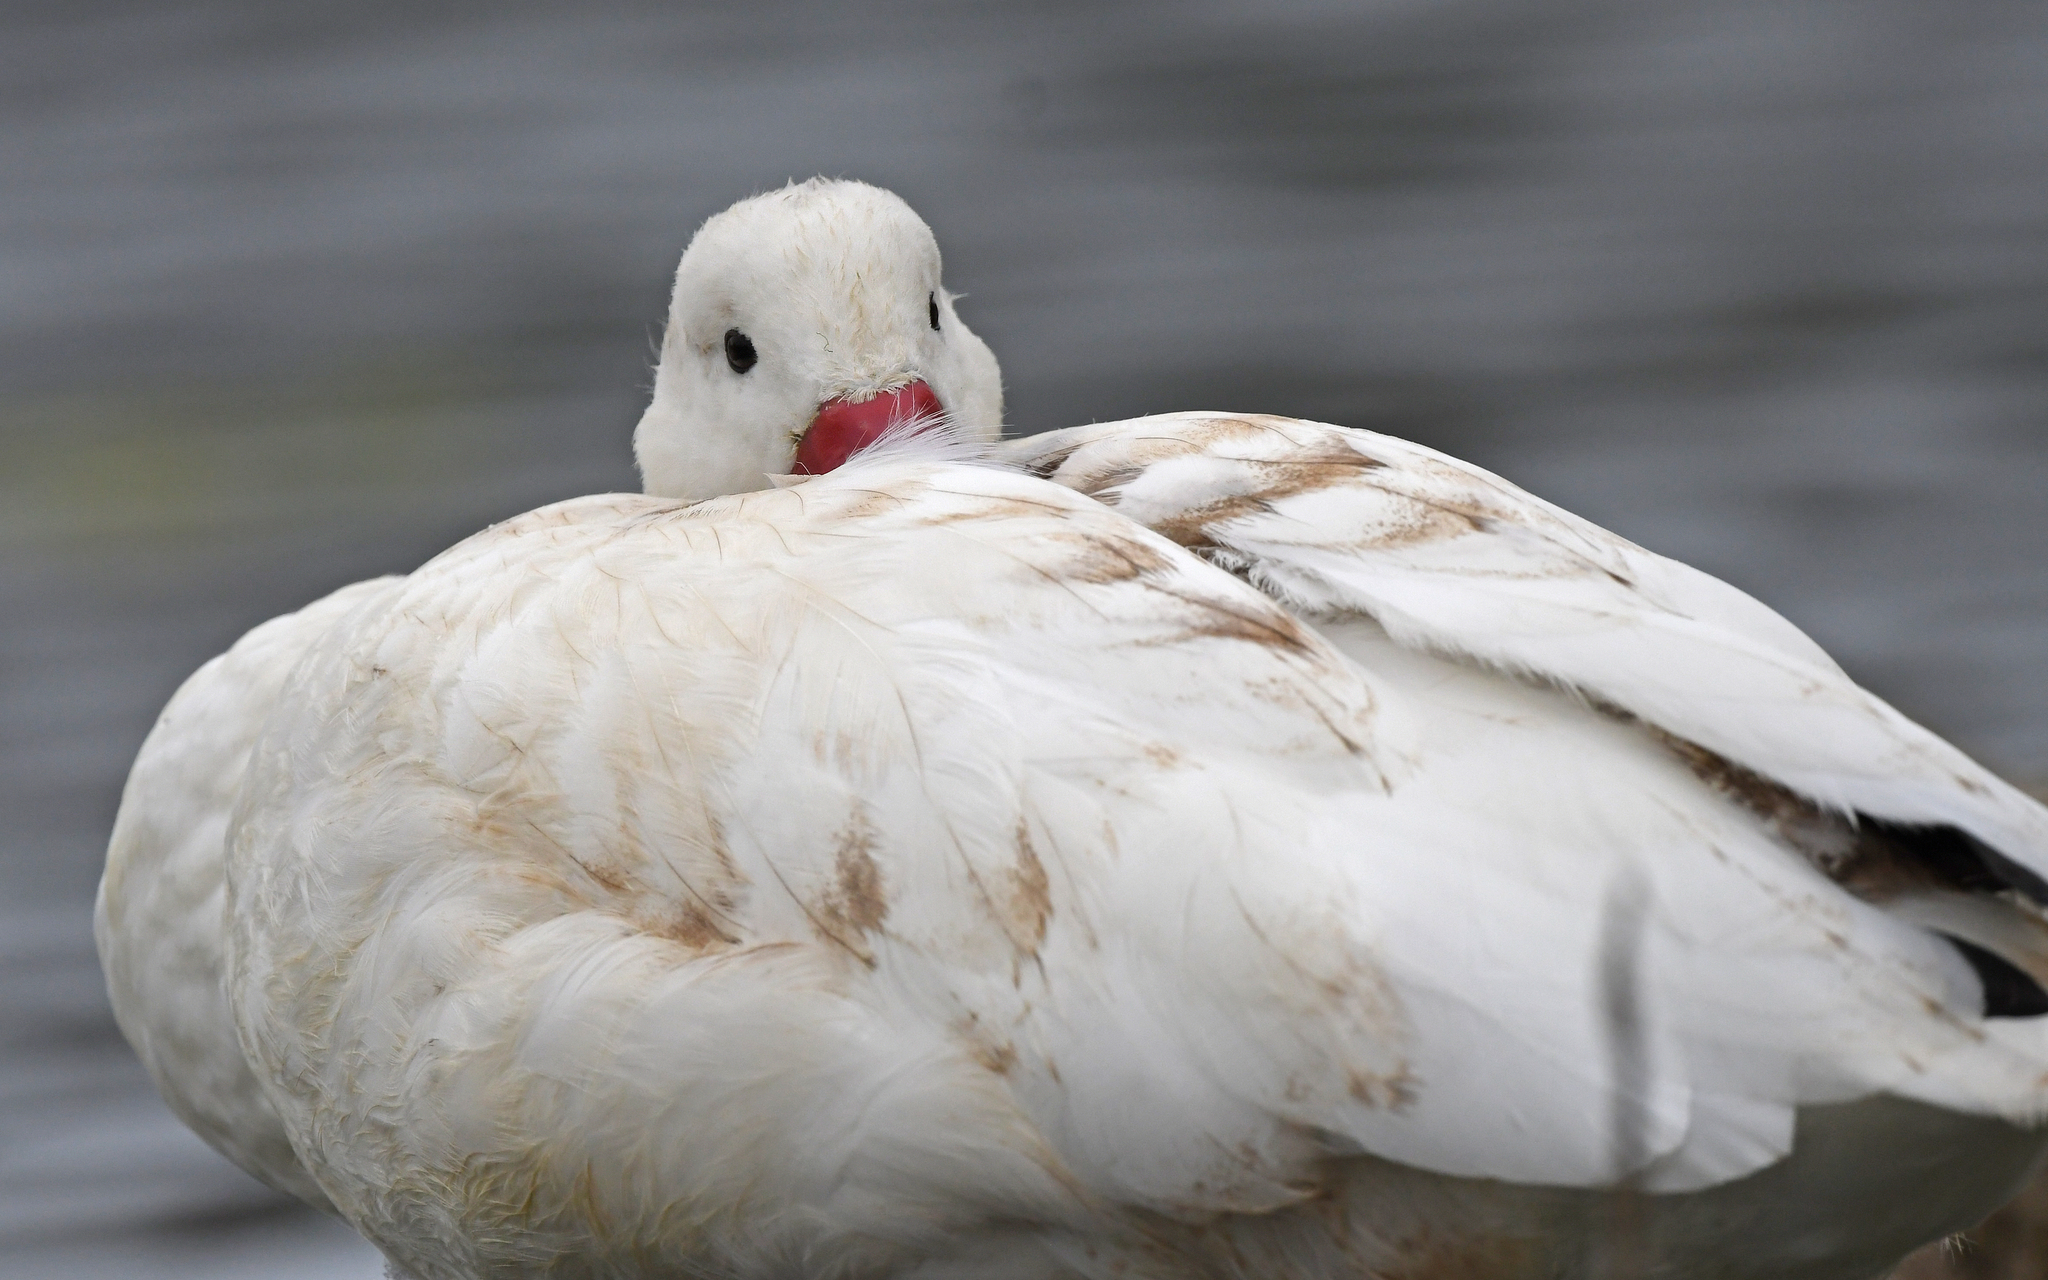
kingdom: Animalia
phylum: Chordata
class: Aves
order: Anseriformes
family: Anatidae
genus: Coscoroba
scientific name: Coscoroba coscoroba
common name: Coscoroba swan
